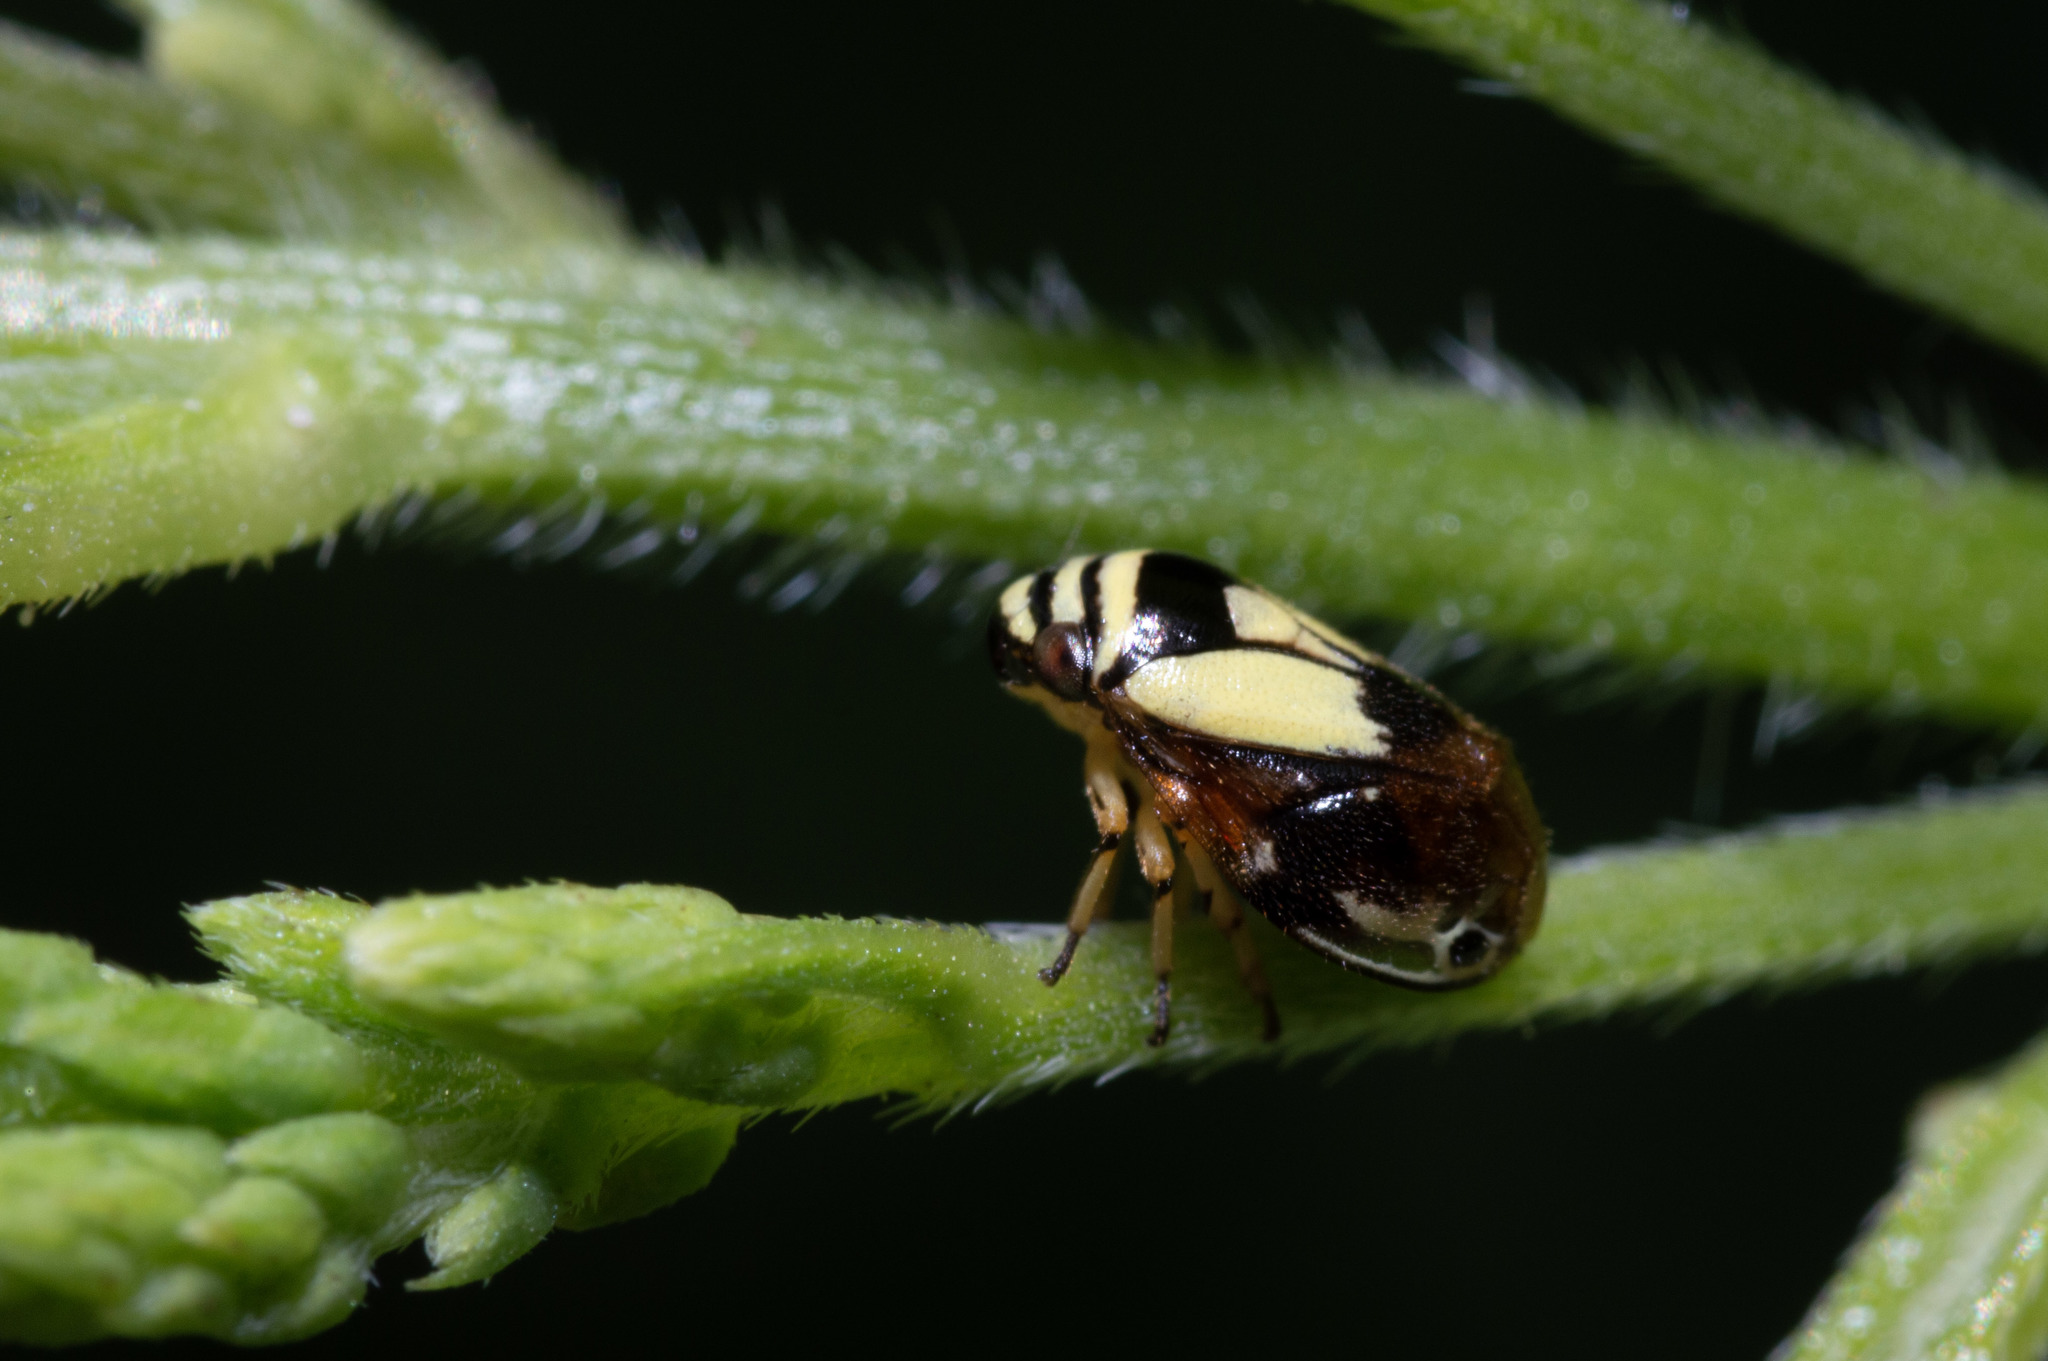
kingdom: Animalia
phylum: Arthropoda
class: Insecta
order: Hemiptera
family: Clastopteridae
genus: Clastoptera
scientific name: Clastoptera proteus
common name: Dogwood spittlebug
